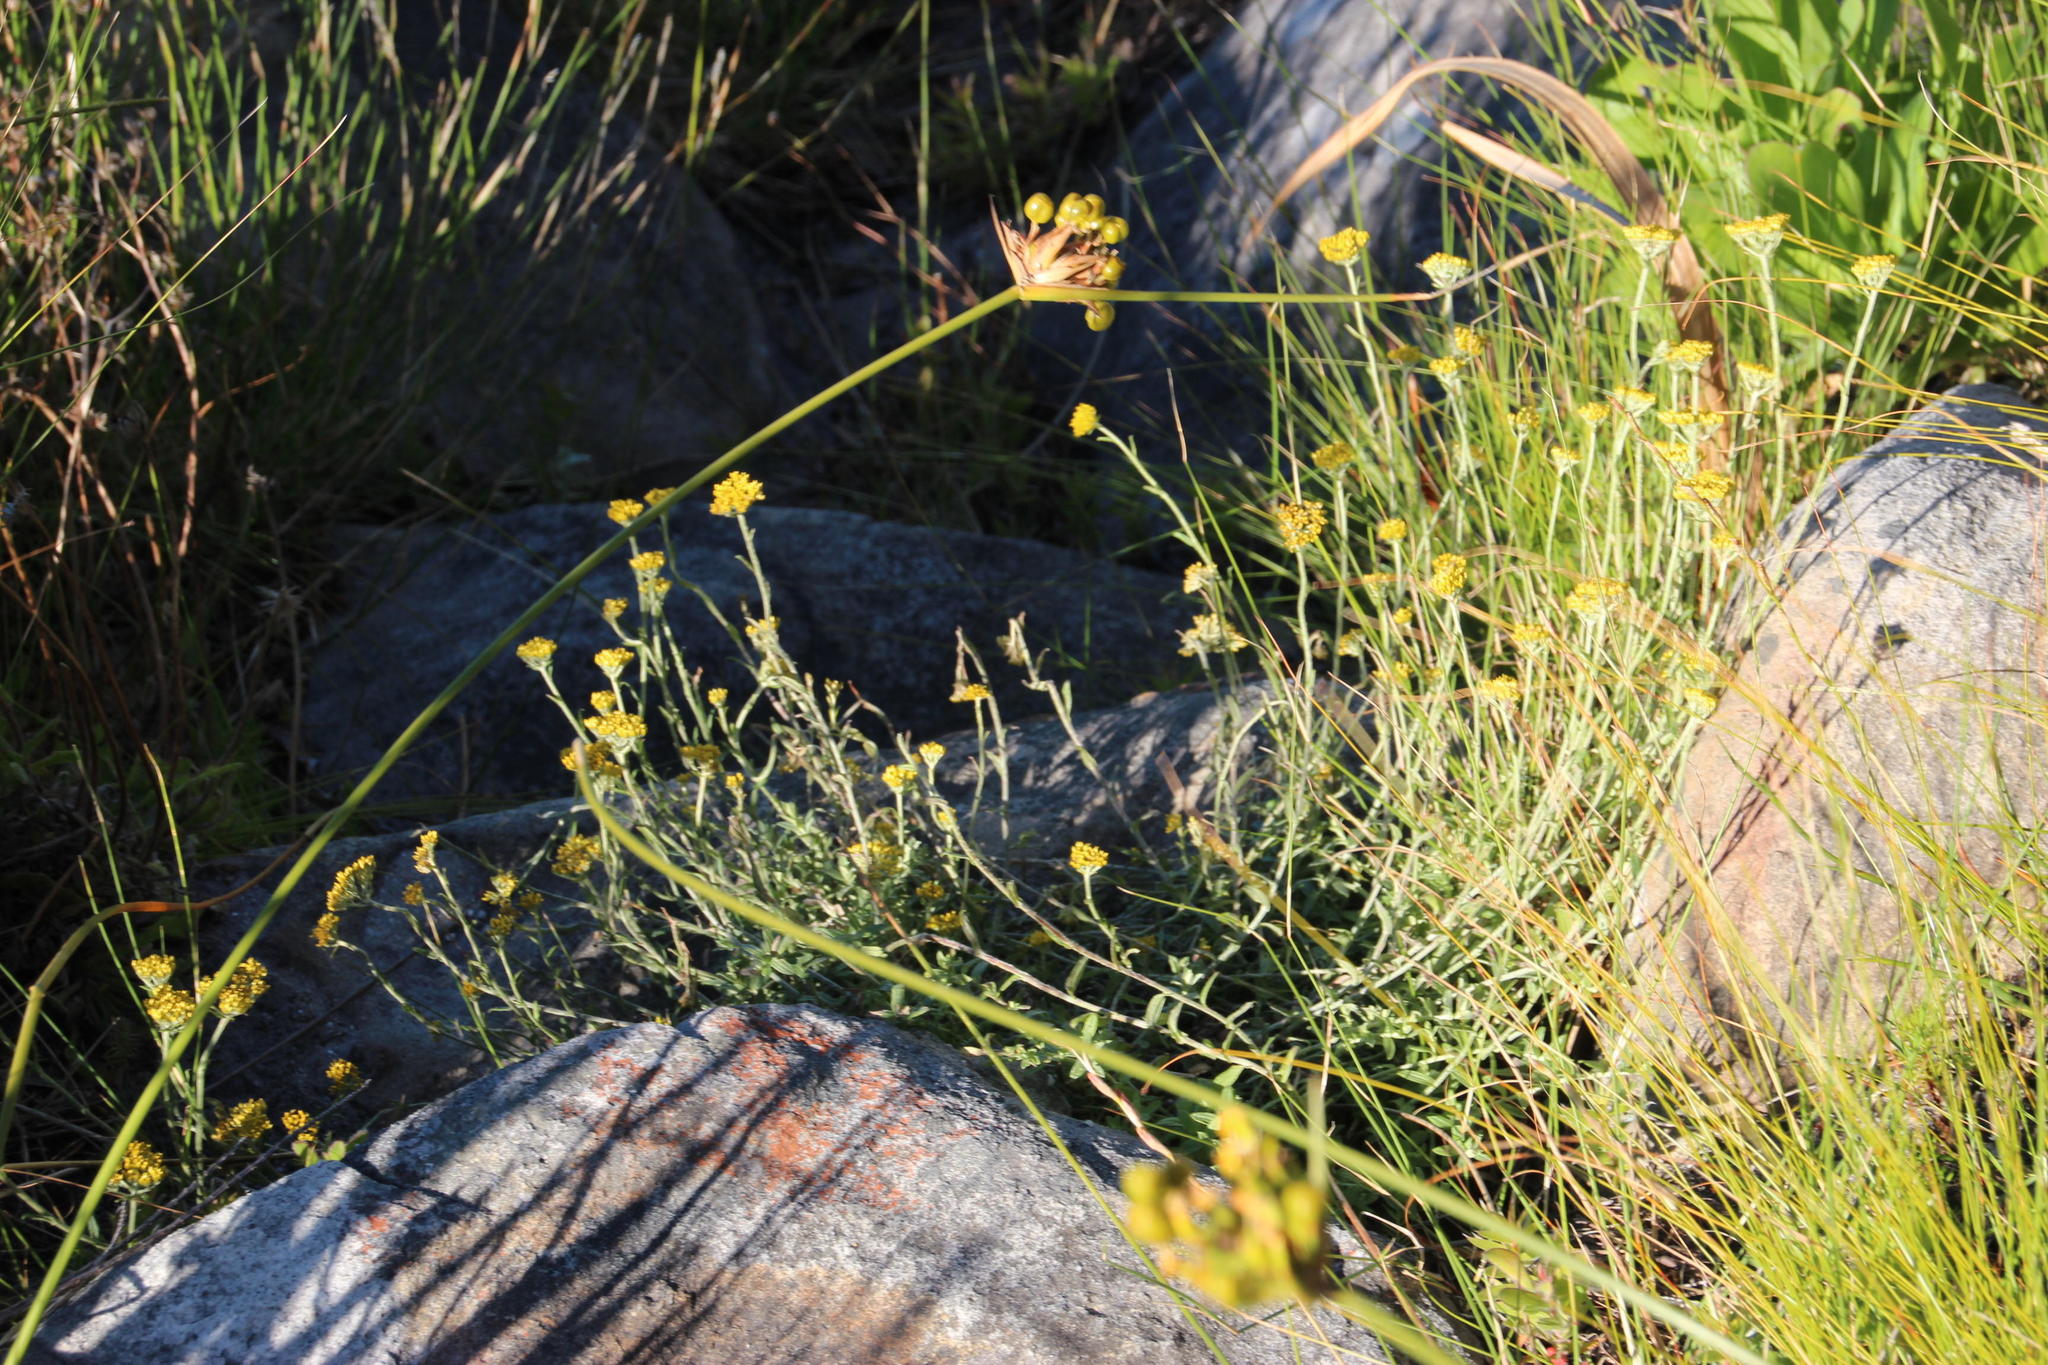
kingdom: Plantae
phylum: Tracheophyta
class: Magnoliopsida
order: Asterales
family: Asteraceae
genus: Helichrysum
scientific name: Helichrysum cymosum
